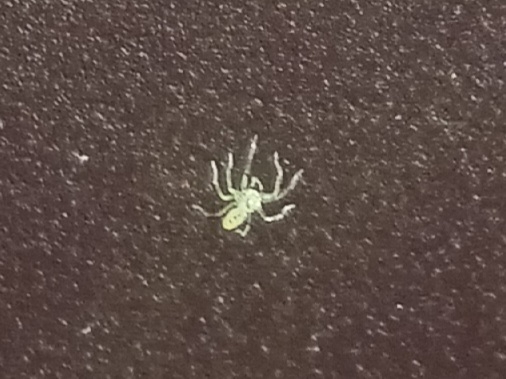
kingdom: Animalia
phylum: Arthropoda
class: Arachnida
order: Araneae
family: Salticidae
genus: Lyssomanes
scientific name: Lyssomanes viridis
